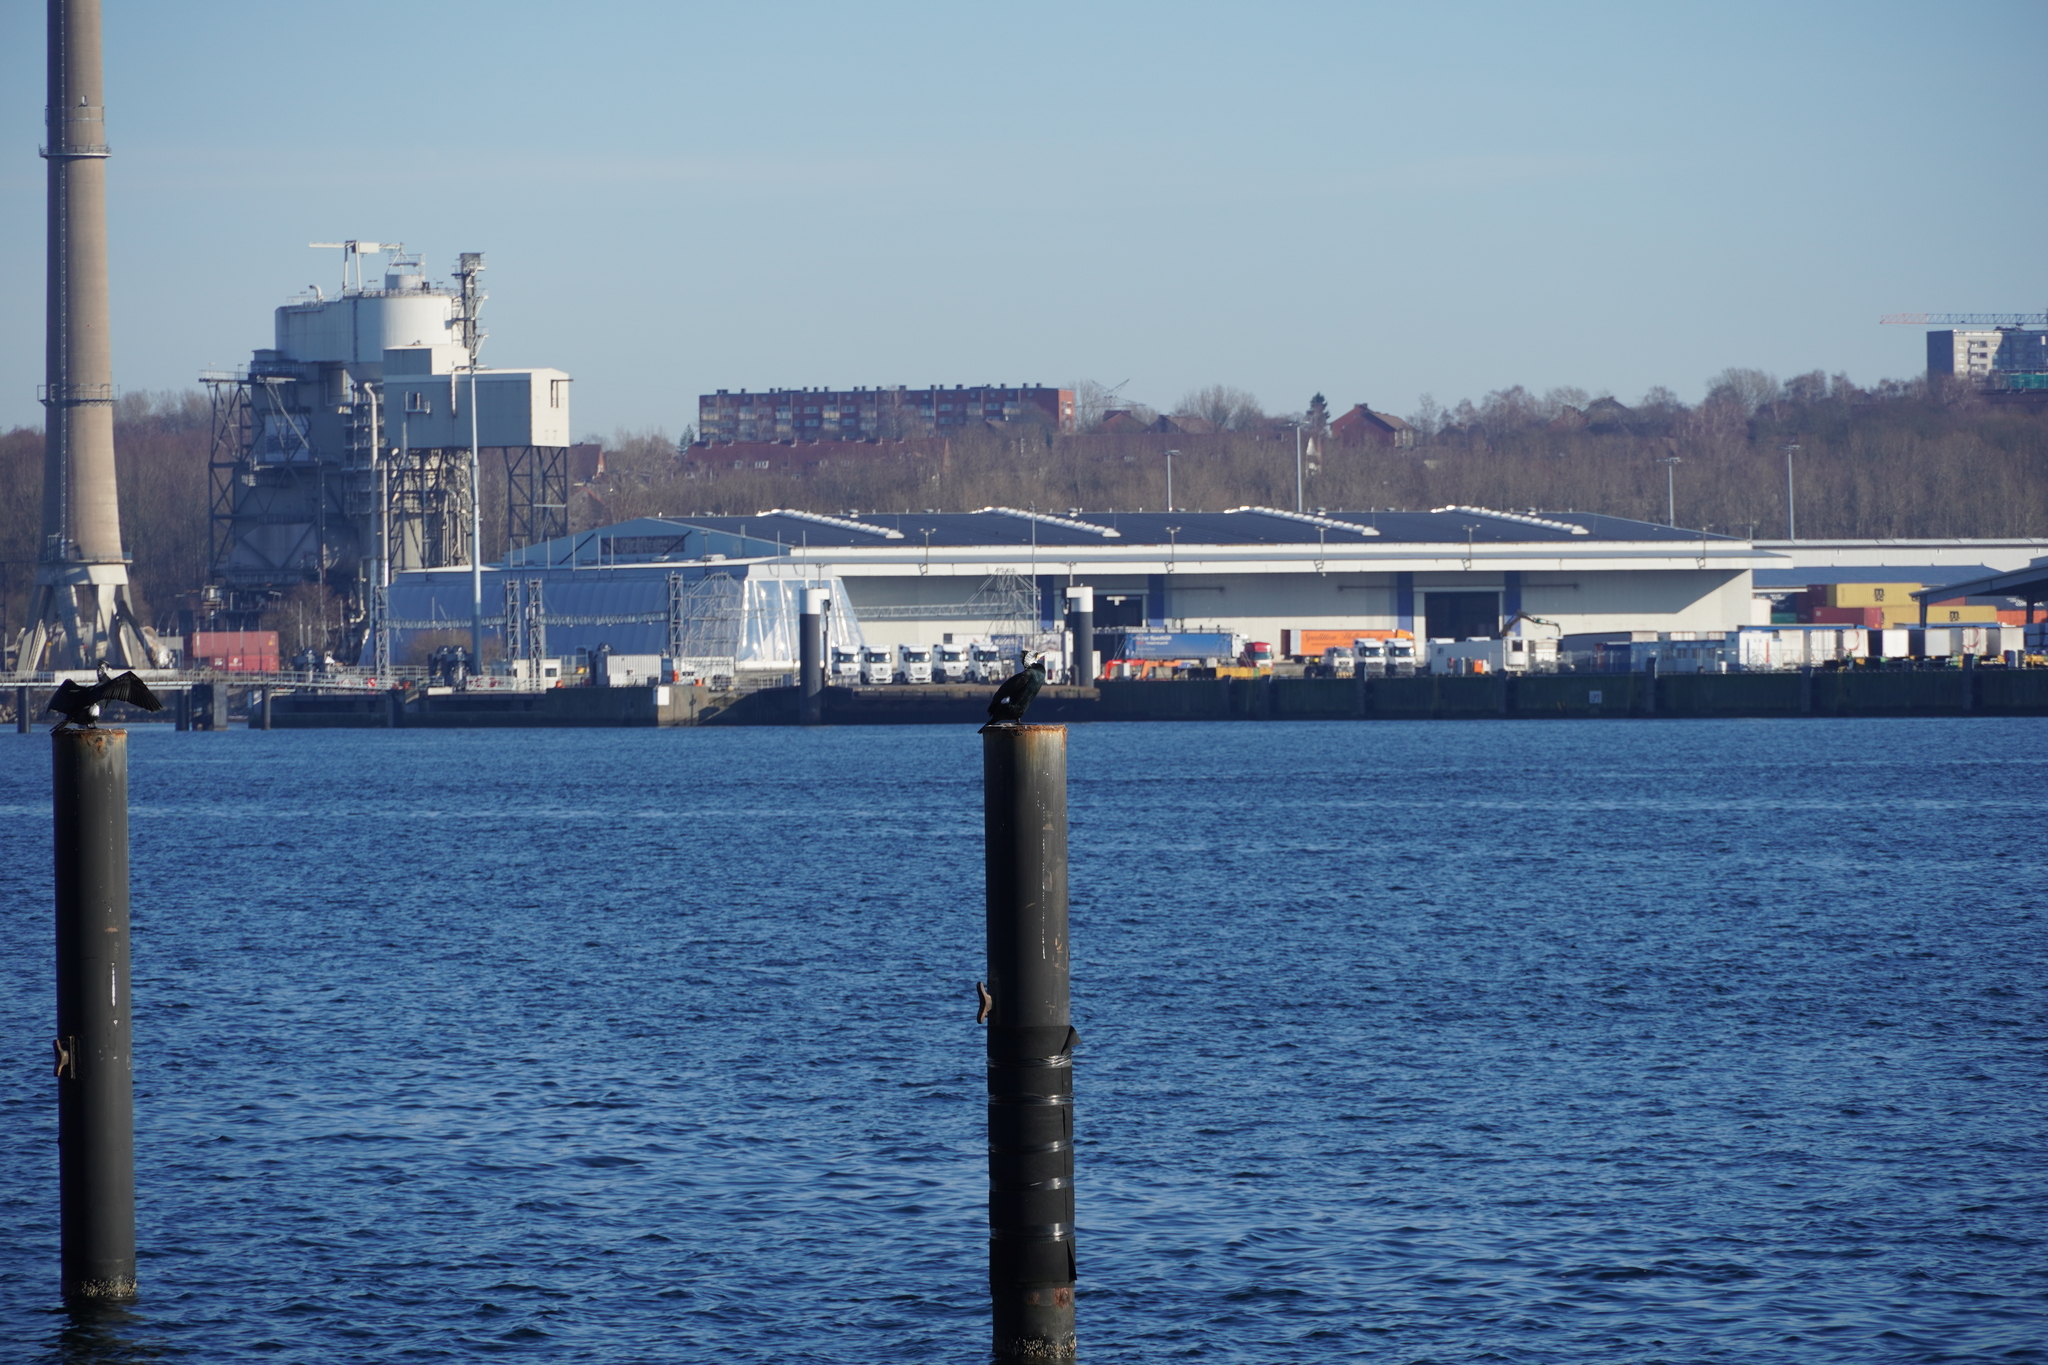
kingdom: Animalia
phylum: Chordata
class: Aves
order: Suliformes
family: Phalacrocoracidae
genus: Phalacrocorax
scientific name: Phalacrocorax carbo
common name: Great cormorant
